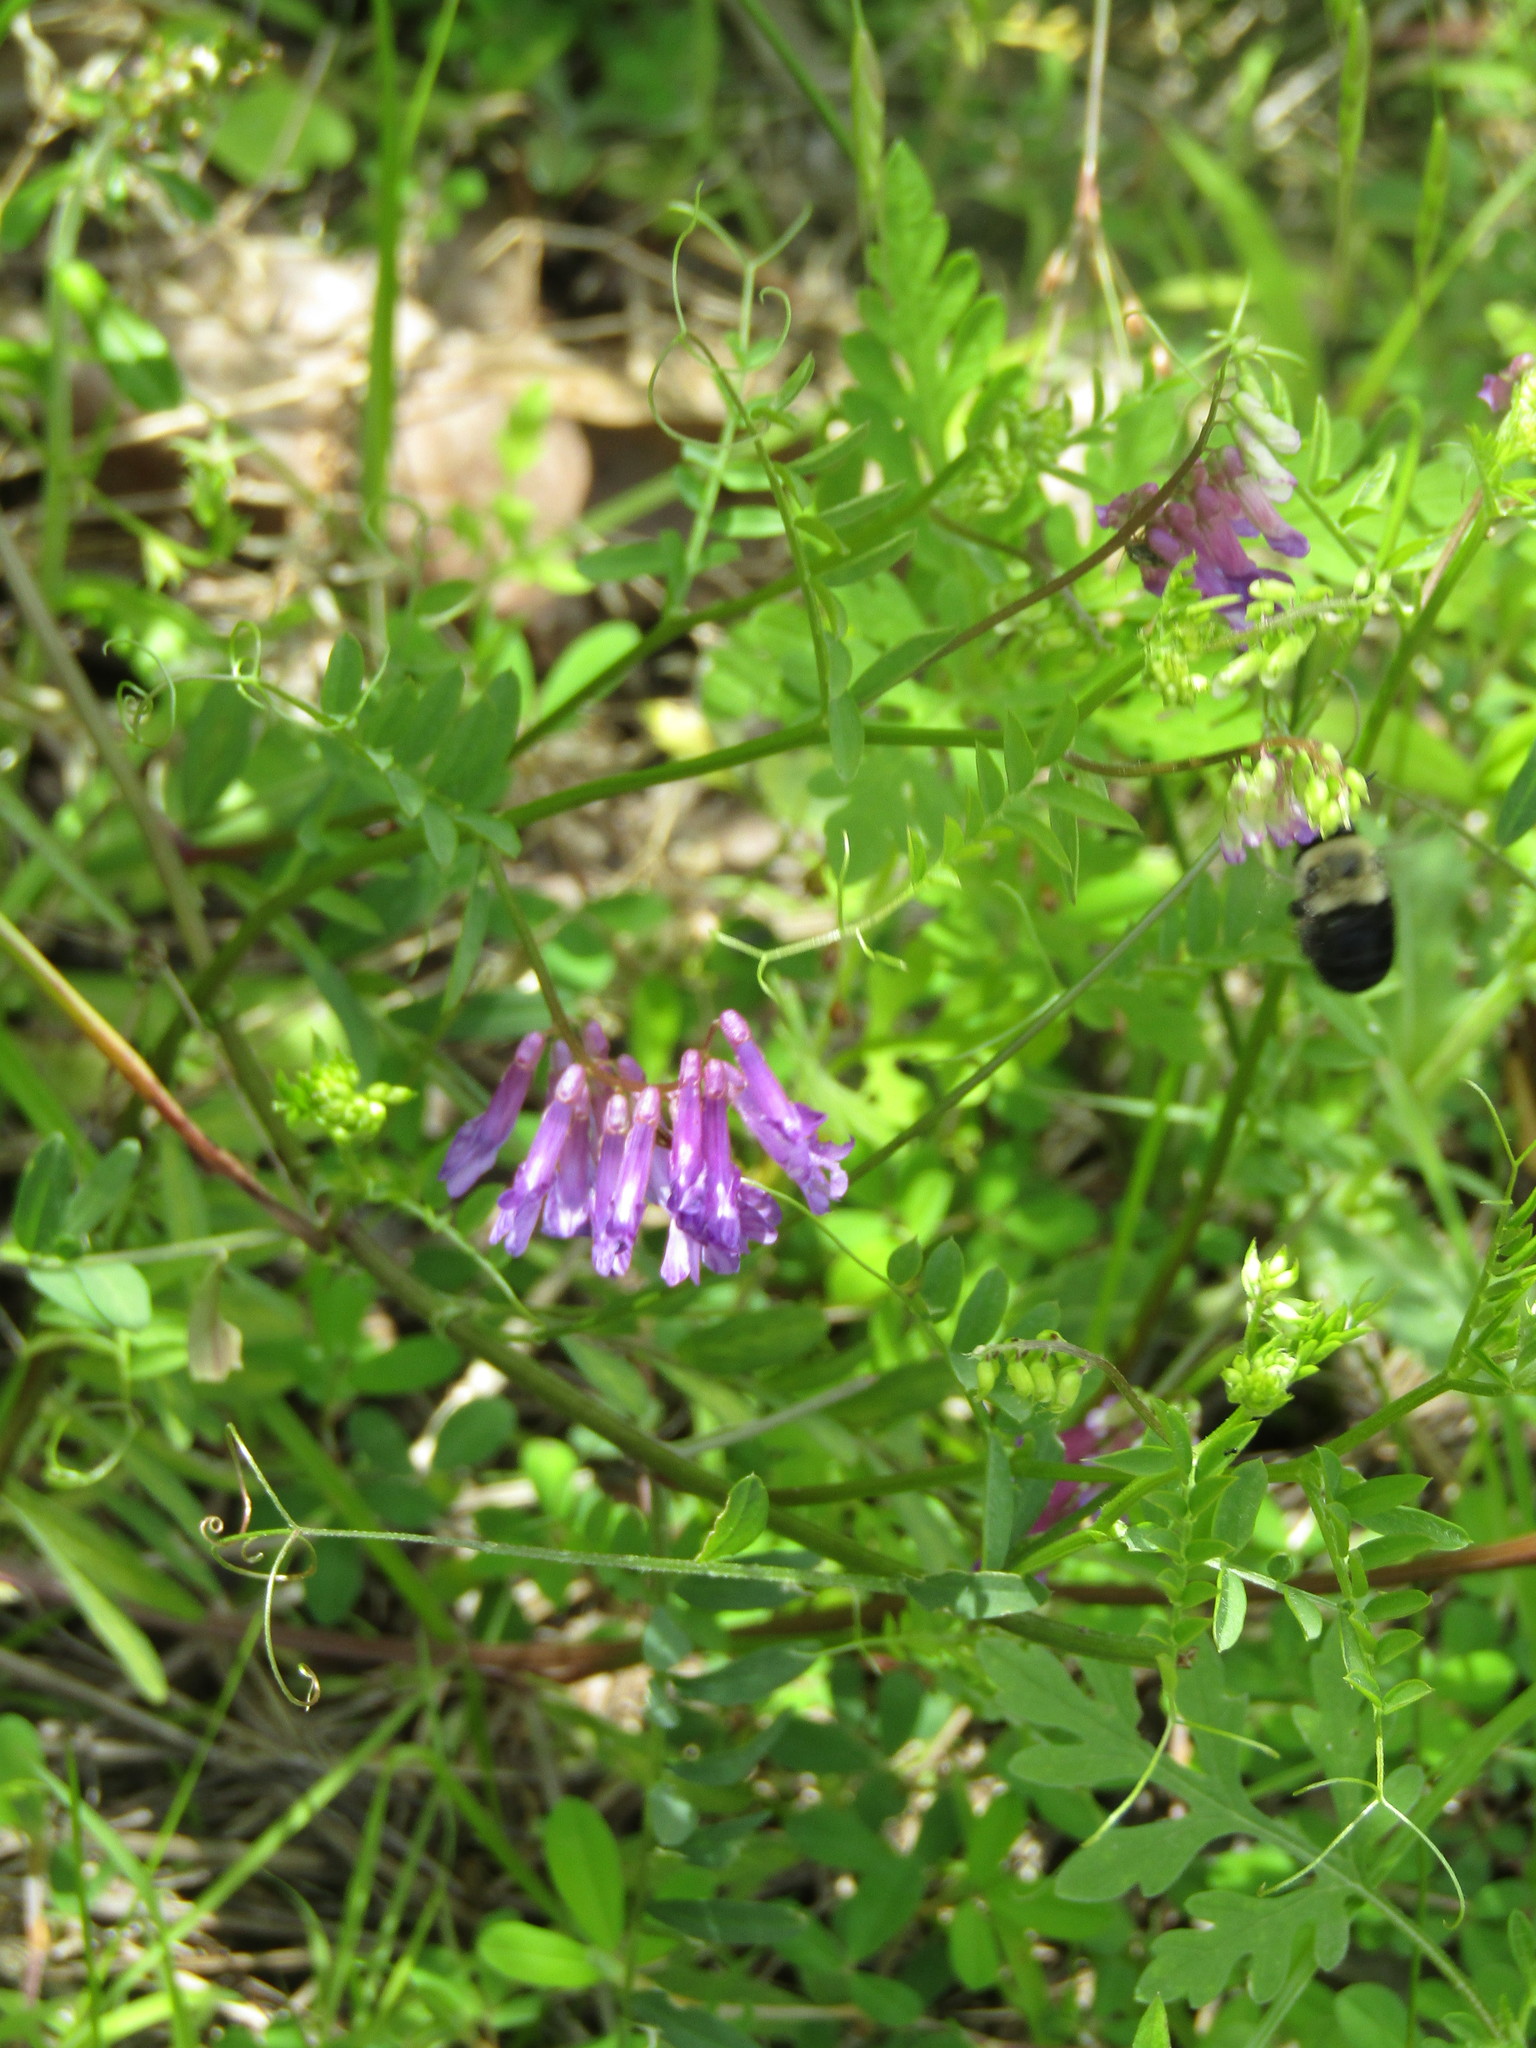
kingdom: Plantae
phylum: Tracheophyta
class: Magnoliopsida
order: Fabales
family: Fabaceae
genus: Vicia
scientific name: Vicia villosa
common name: Fodder vetch
